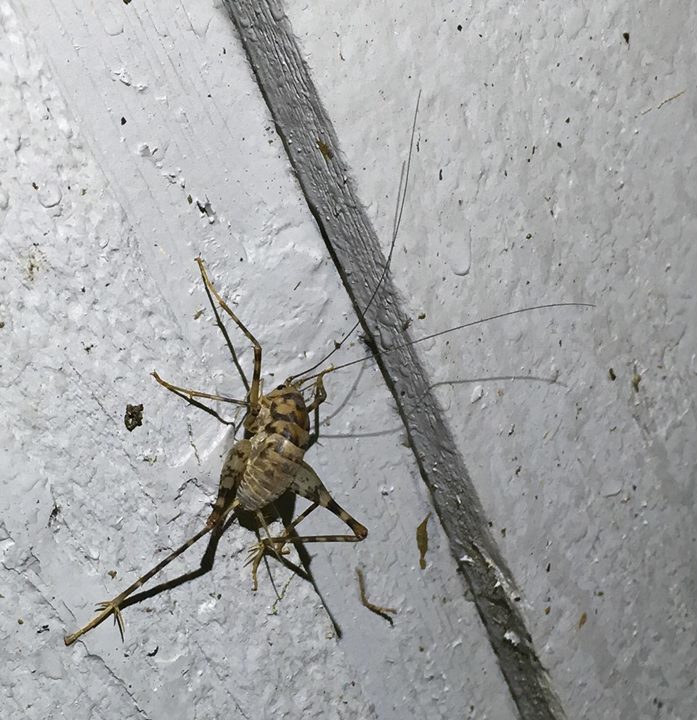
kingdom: Animalia
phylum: Arthropoda
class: Insecta
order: Orthoptera
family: Rhaphidophoridae
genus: Tachycines
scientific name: Tachycines asynamorus
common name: Greenhouse camel cricket
